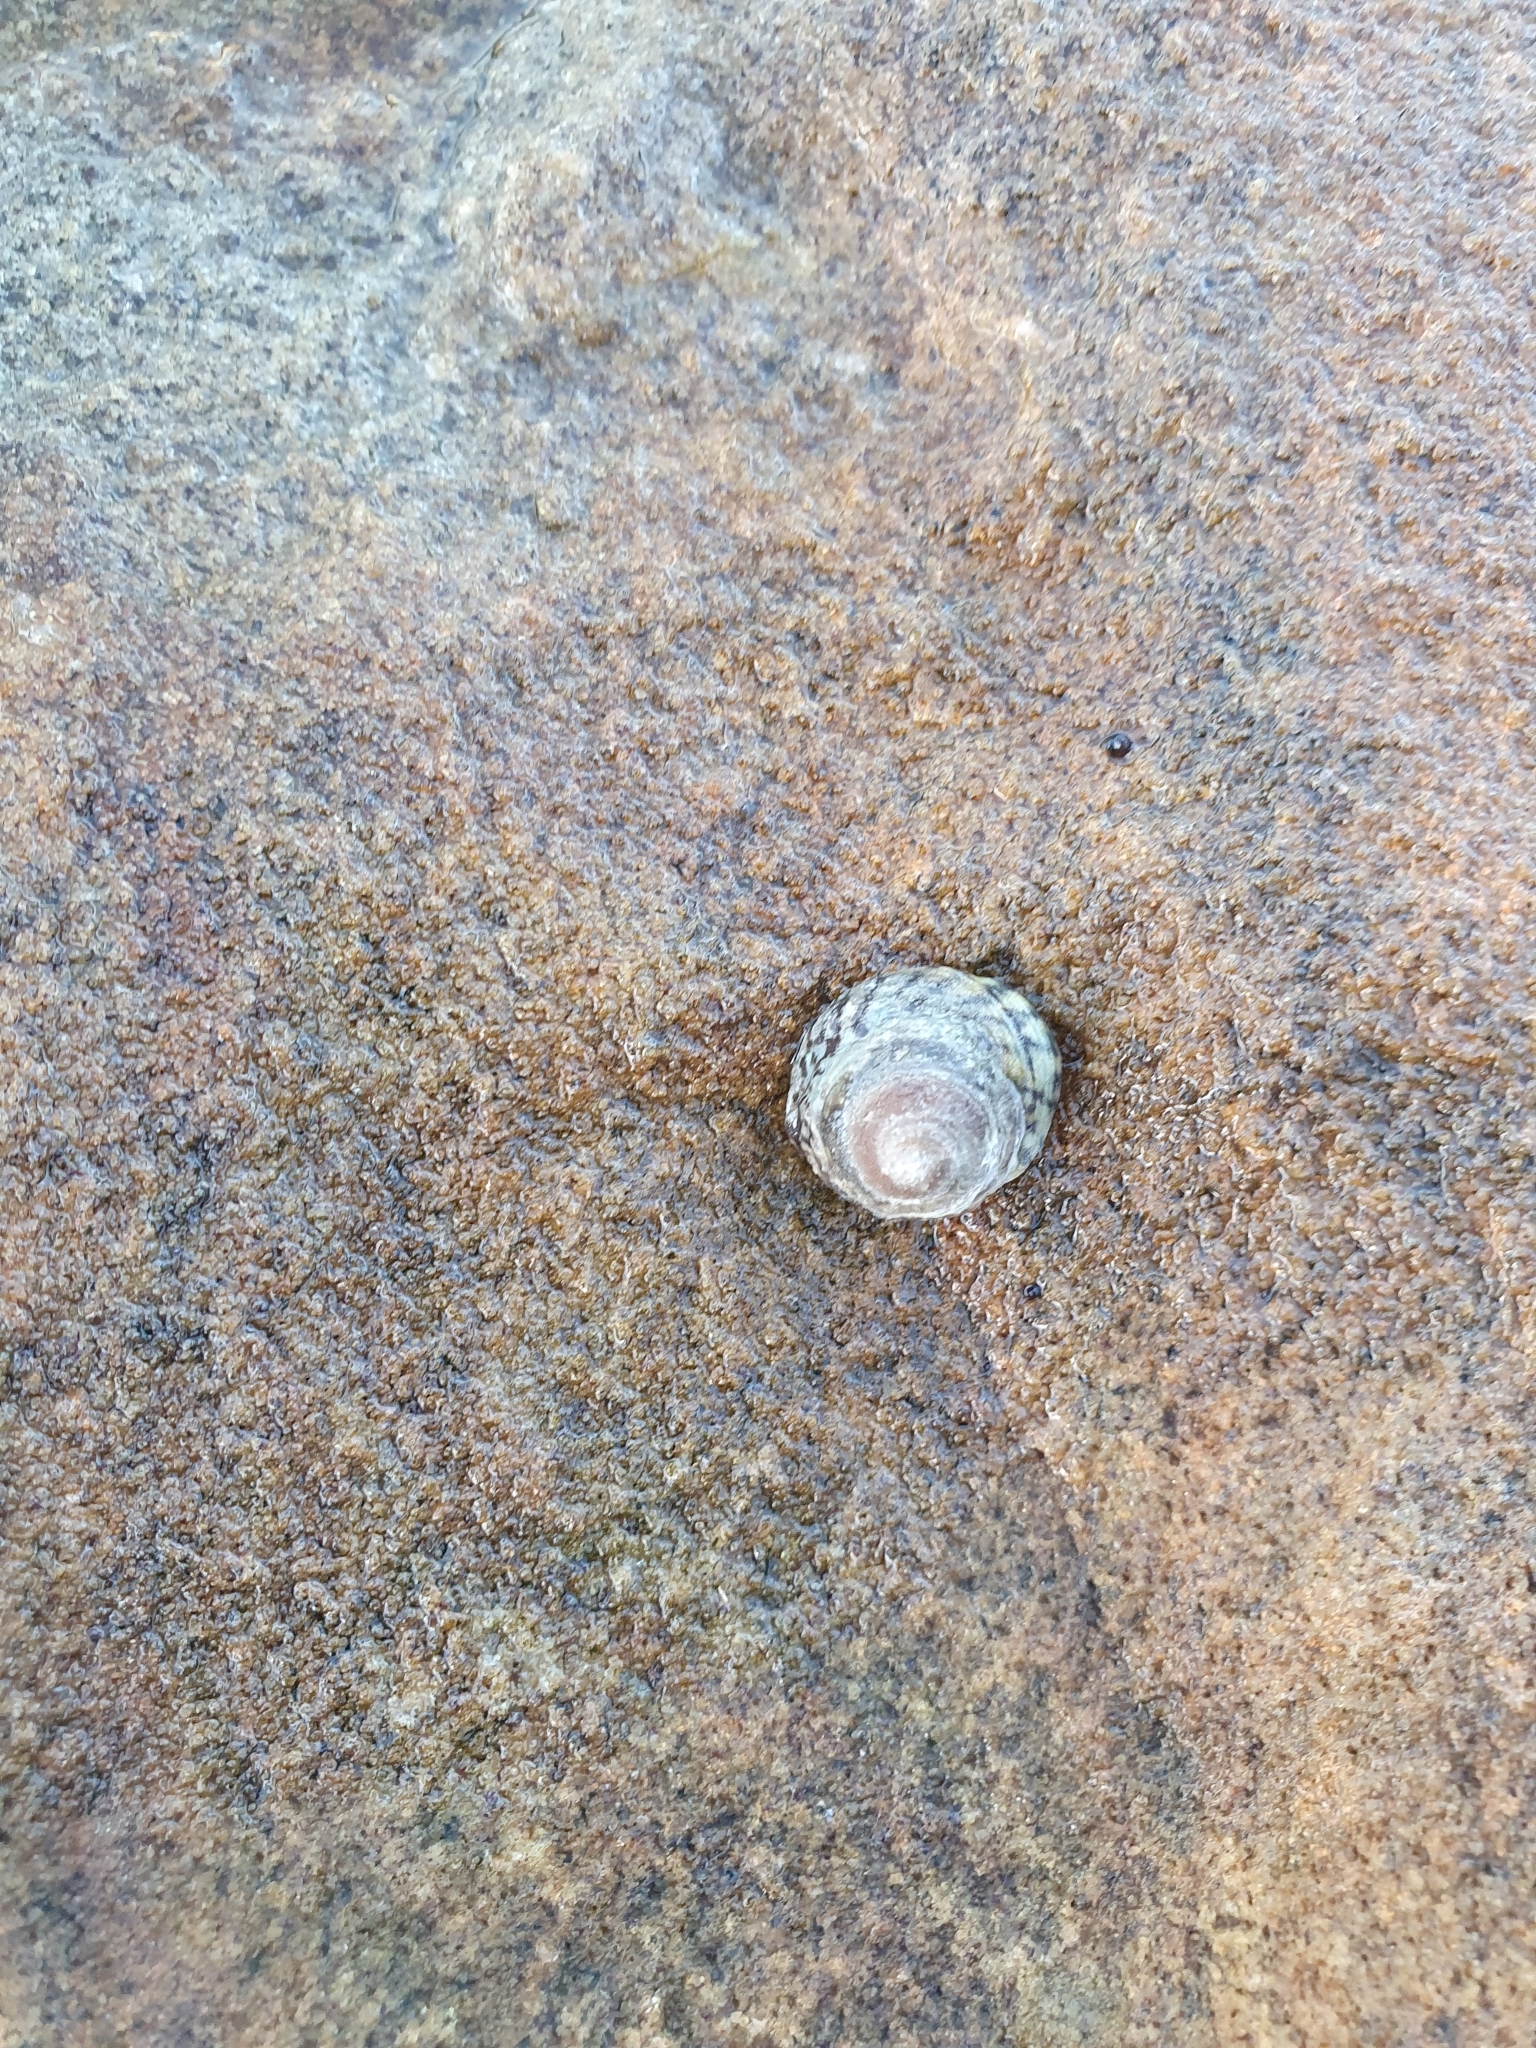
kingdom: Animalia
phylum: Mollusca
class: Gastropoda
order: Littorinimorpha
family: Littorinidae
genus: Bembicium
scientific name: Bembicium nanum
